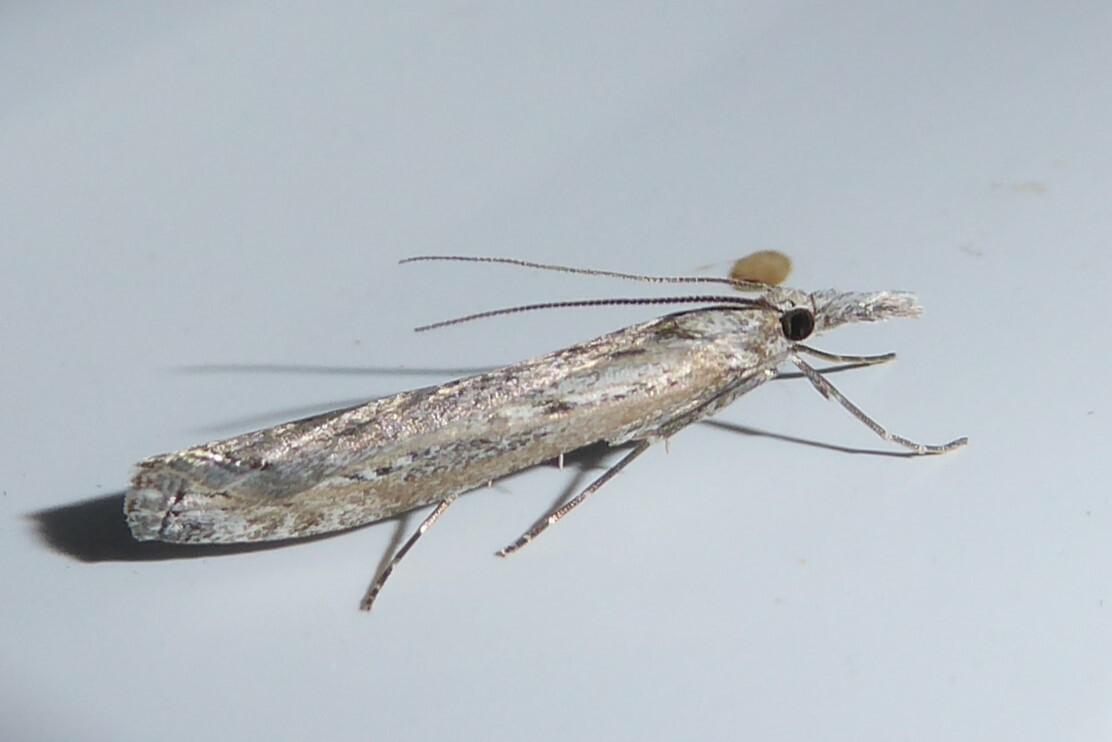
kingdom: Animalia
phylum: Arthropoda
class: Insecta
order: Lepidoptera
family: Crambidae
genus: Orocrambus
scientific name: Orocrambus cyclopicus
